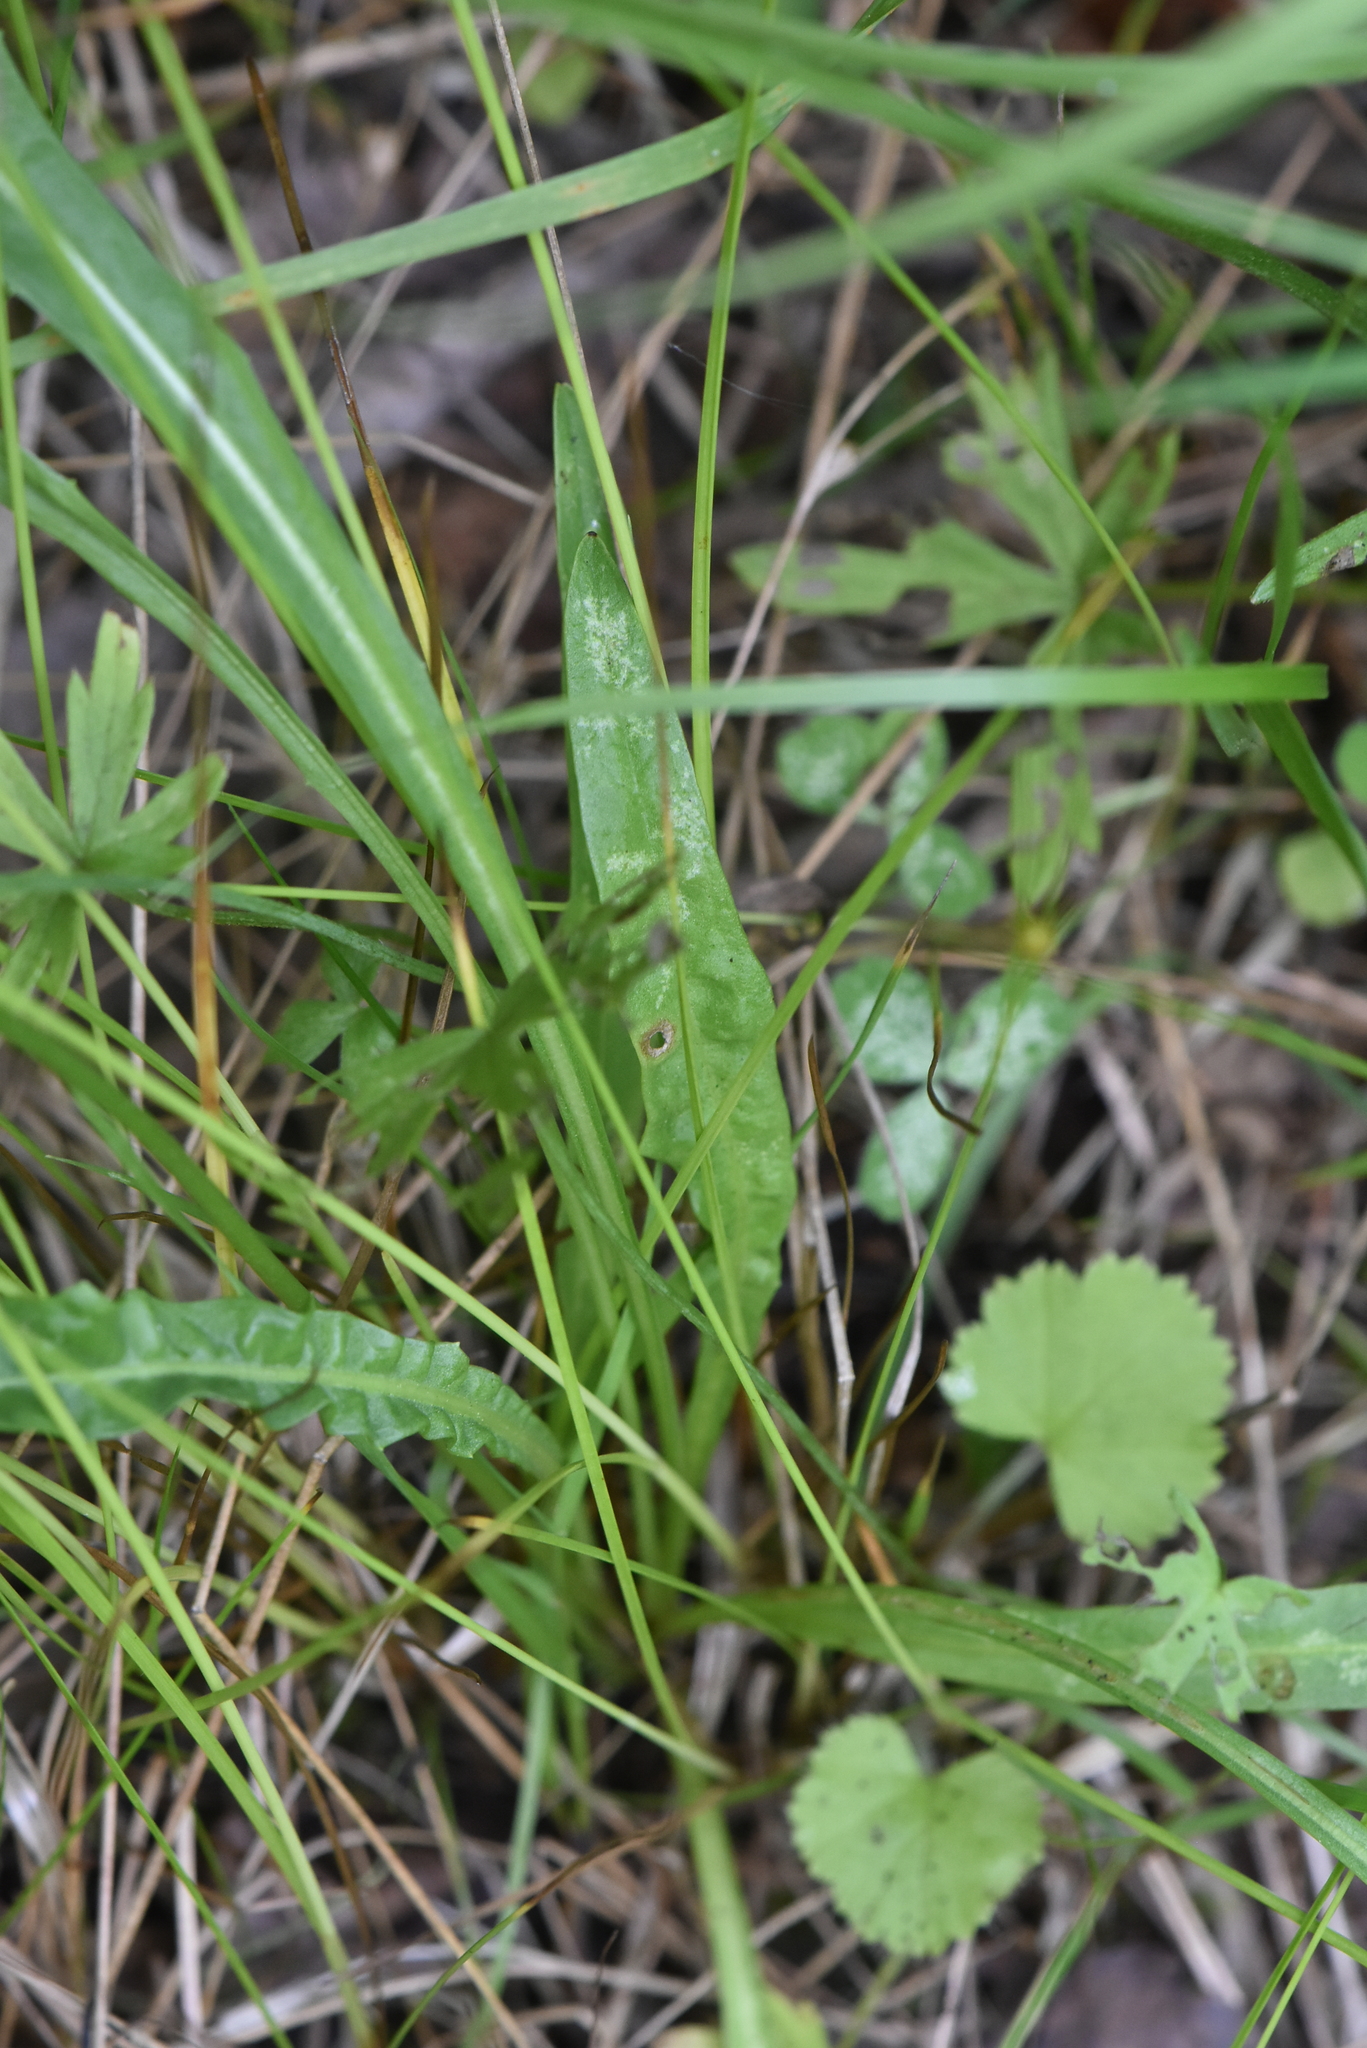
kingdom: Plantae
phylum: Tracheophyta
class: Magnoliopsida
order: Asterales
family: Asteraceae
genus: Scorzoneroides
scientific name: Scorzoneroides autumnalis
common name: Autumn hawkbit
